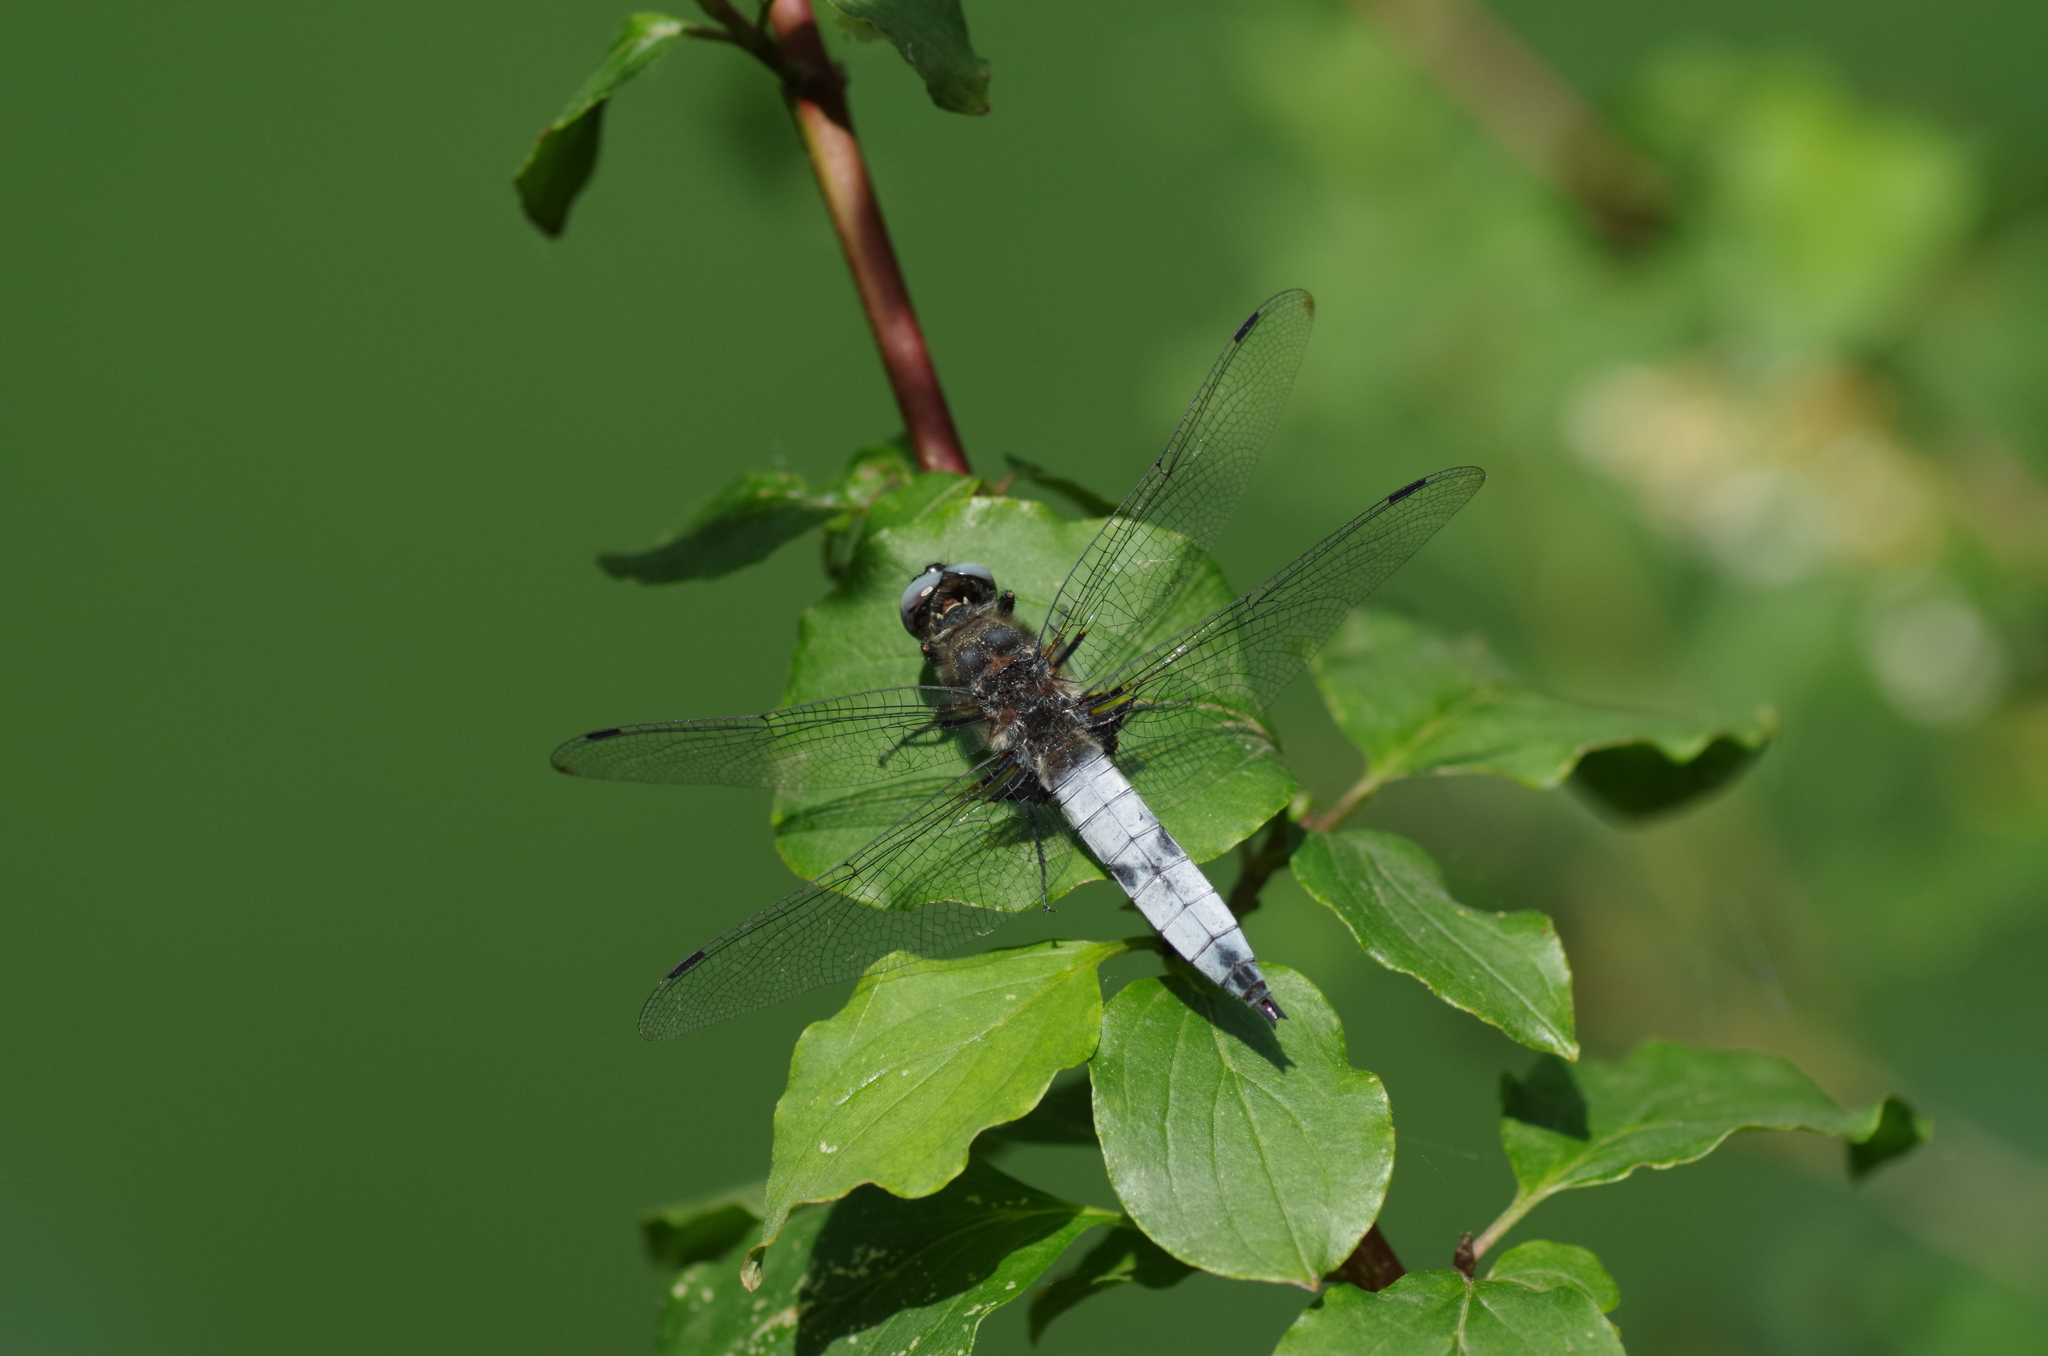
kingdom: Animalia
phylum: Arthropoda
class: Insecta
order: Odonata
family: Libellulidae
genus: Libellula
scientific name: Libellula fulva
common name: Blue chaser
